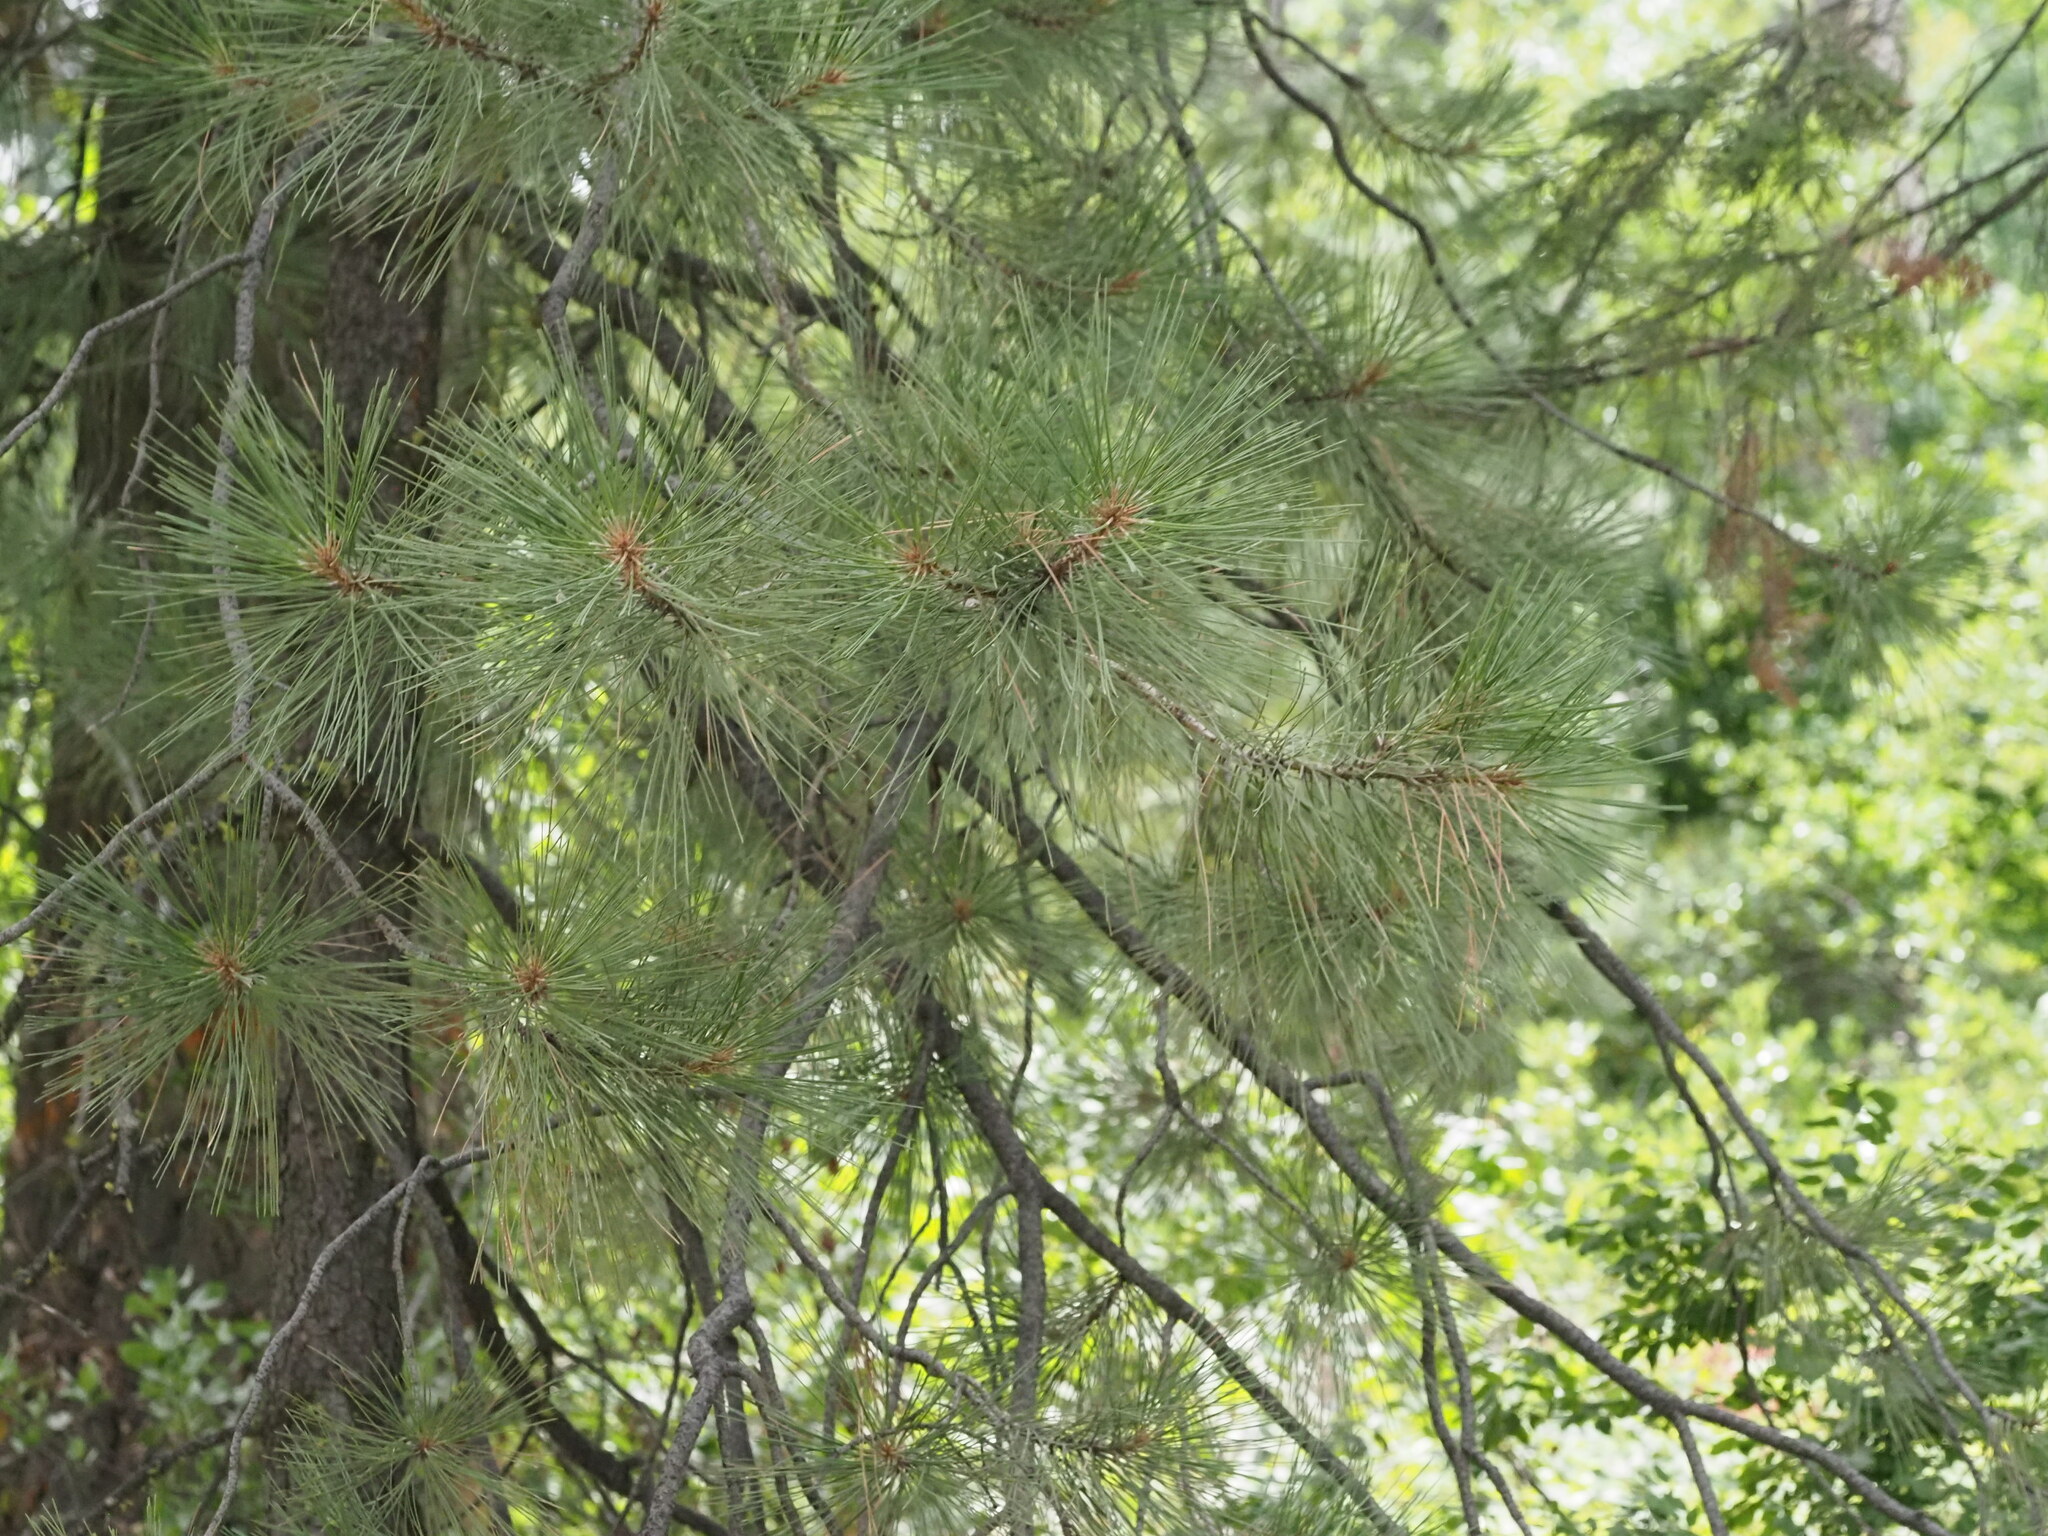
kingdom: Plantae
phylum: Tracheophyta
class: Pinopsida
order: Pinales
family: Pinaceae
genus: Pinus
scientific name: Pinus ponderosa
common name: Western yellow-pine
